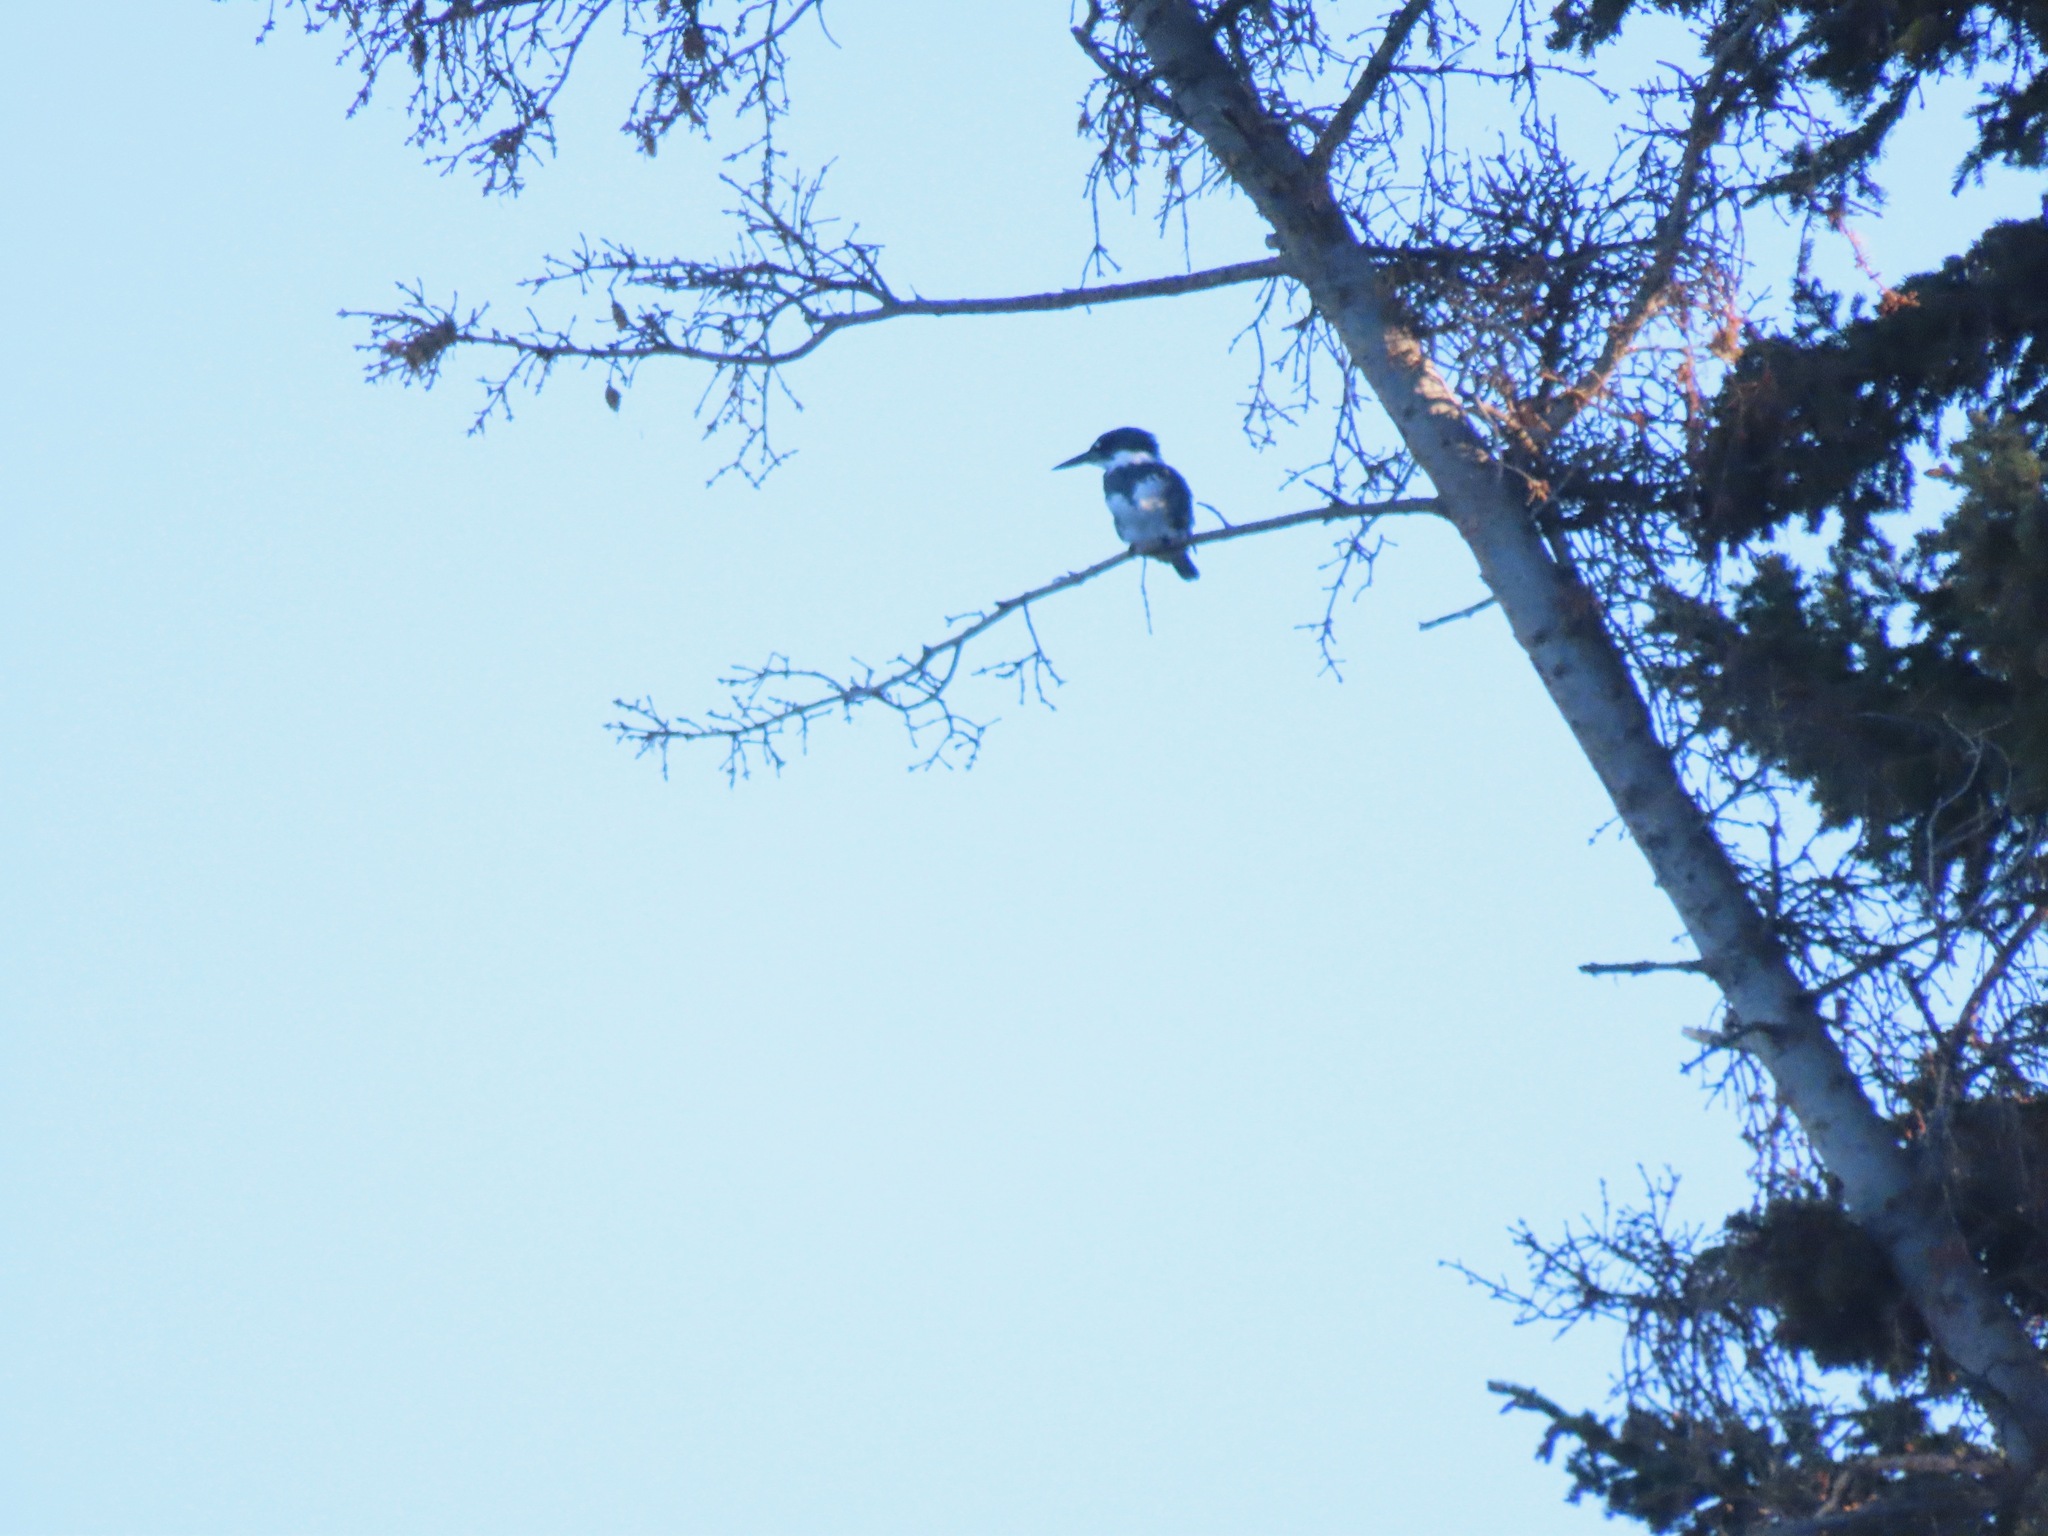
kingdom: Animalia
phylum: Chordata
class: Aves
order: Coraciiformes
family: Alcedinidae
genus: Megaceryle
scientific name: Megaceryle alcyon
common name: Belted kingfisher
